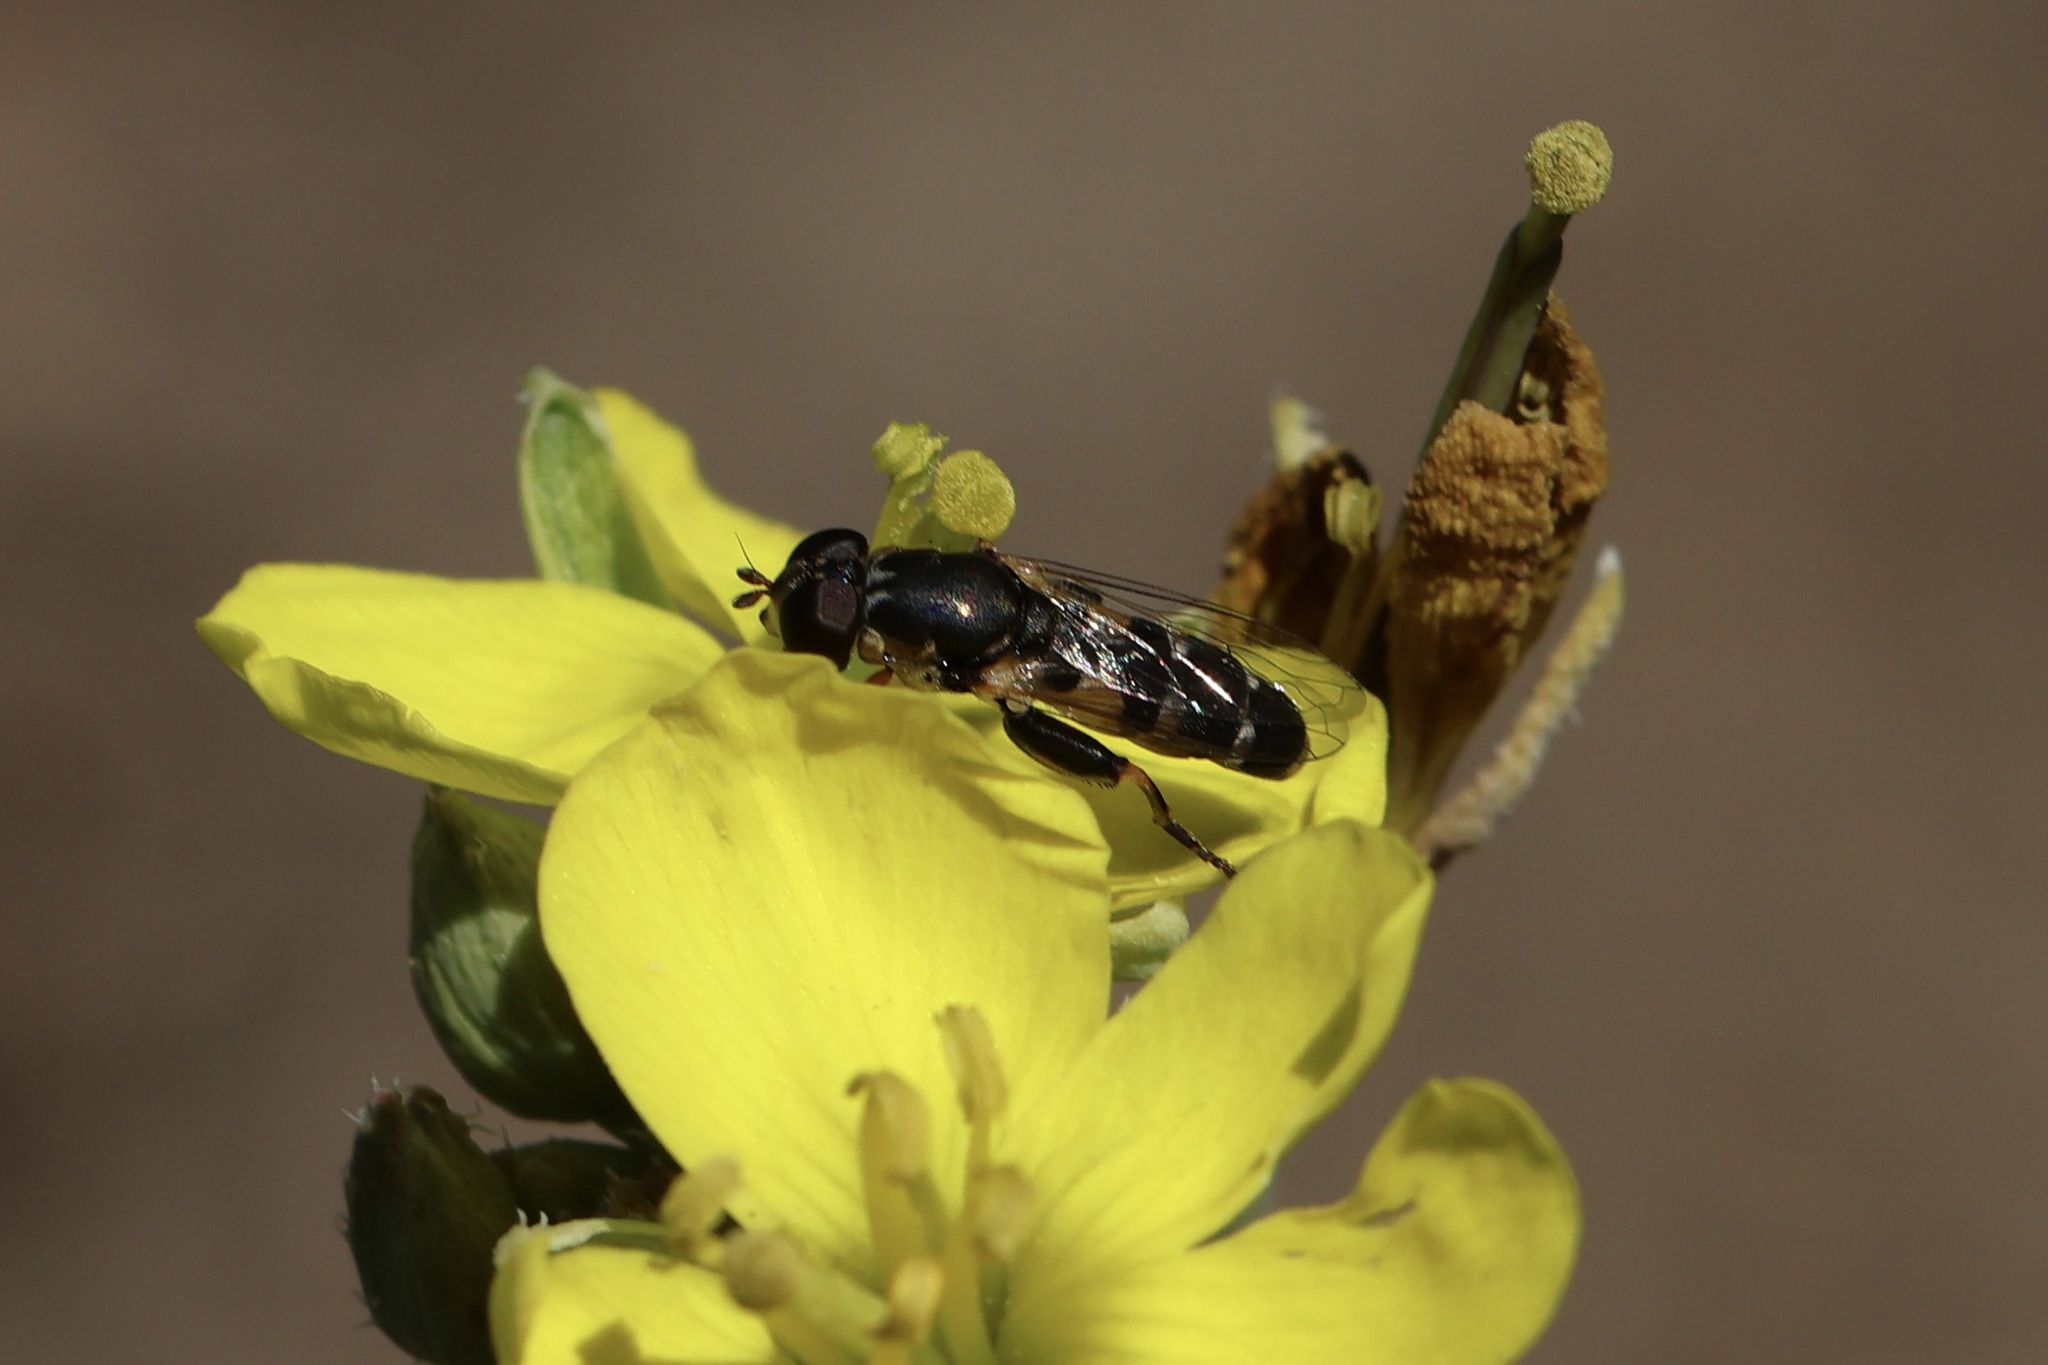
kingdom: Animalia
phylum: Arthropoda
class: Insecta
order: Diptera
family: Syrphidae
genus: Syritta
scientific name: Syritta pipiens
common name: Hover fly
